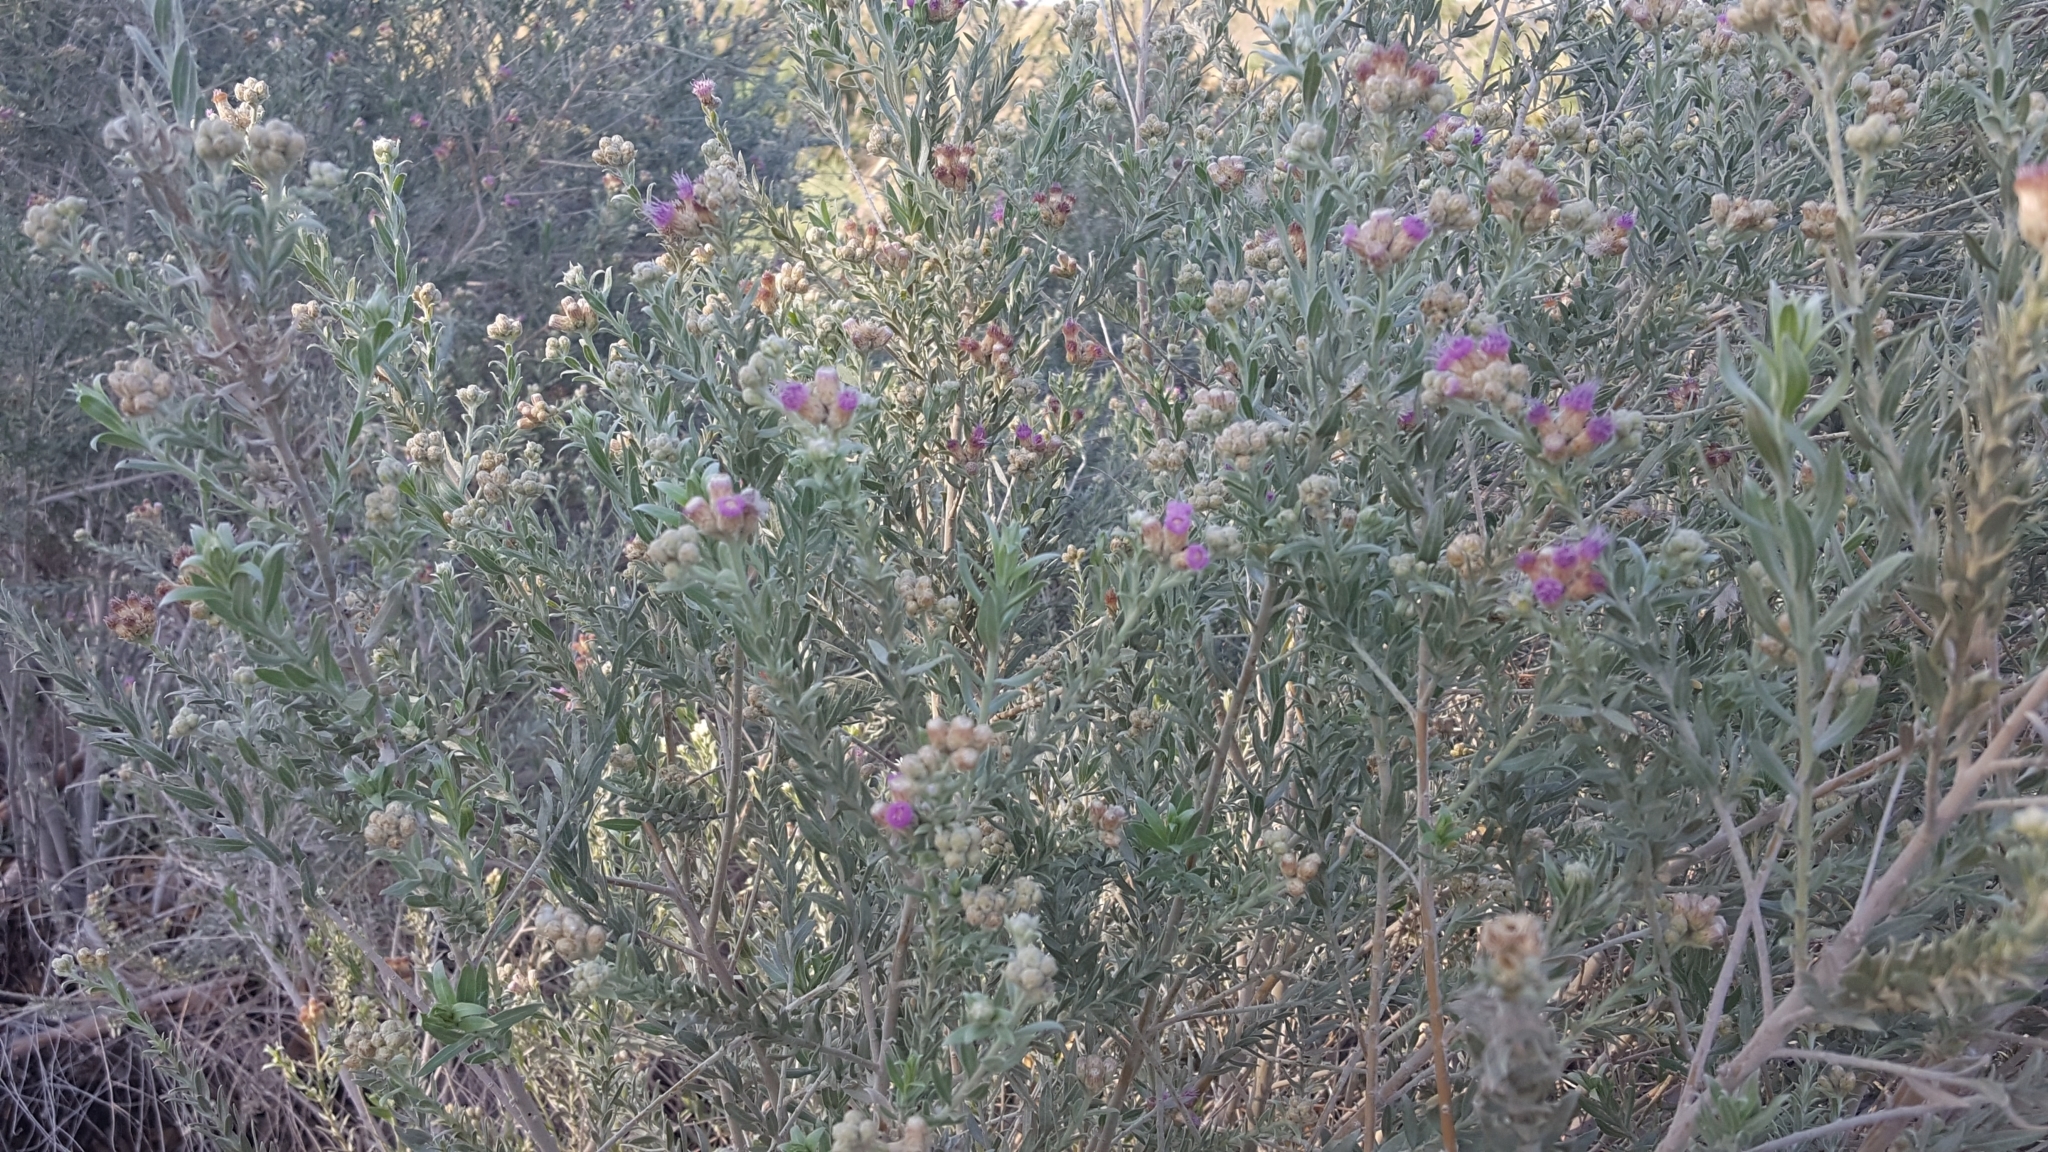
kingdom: Plantae
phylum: Tracheophyta
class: Magnoliopsida
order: Asterales
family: Asteraceae
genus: Pluchea
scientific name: Pluchea sericea
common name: Arrow-weed
